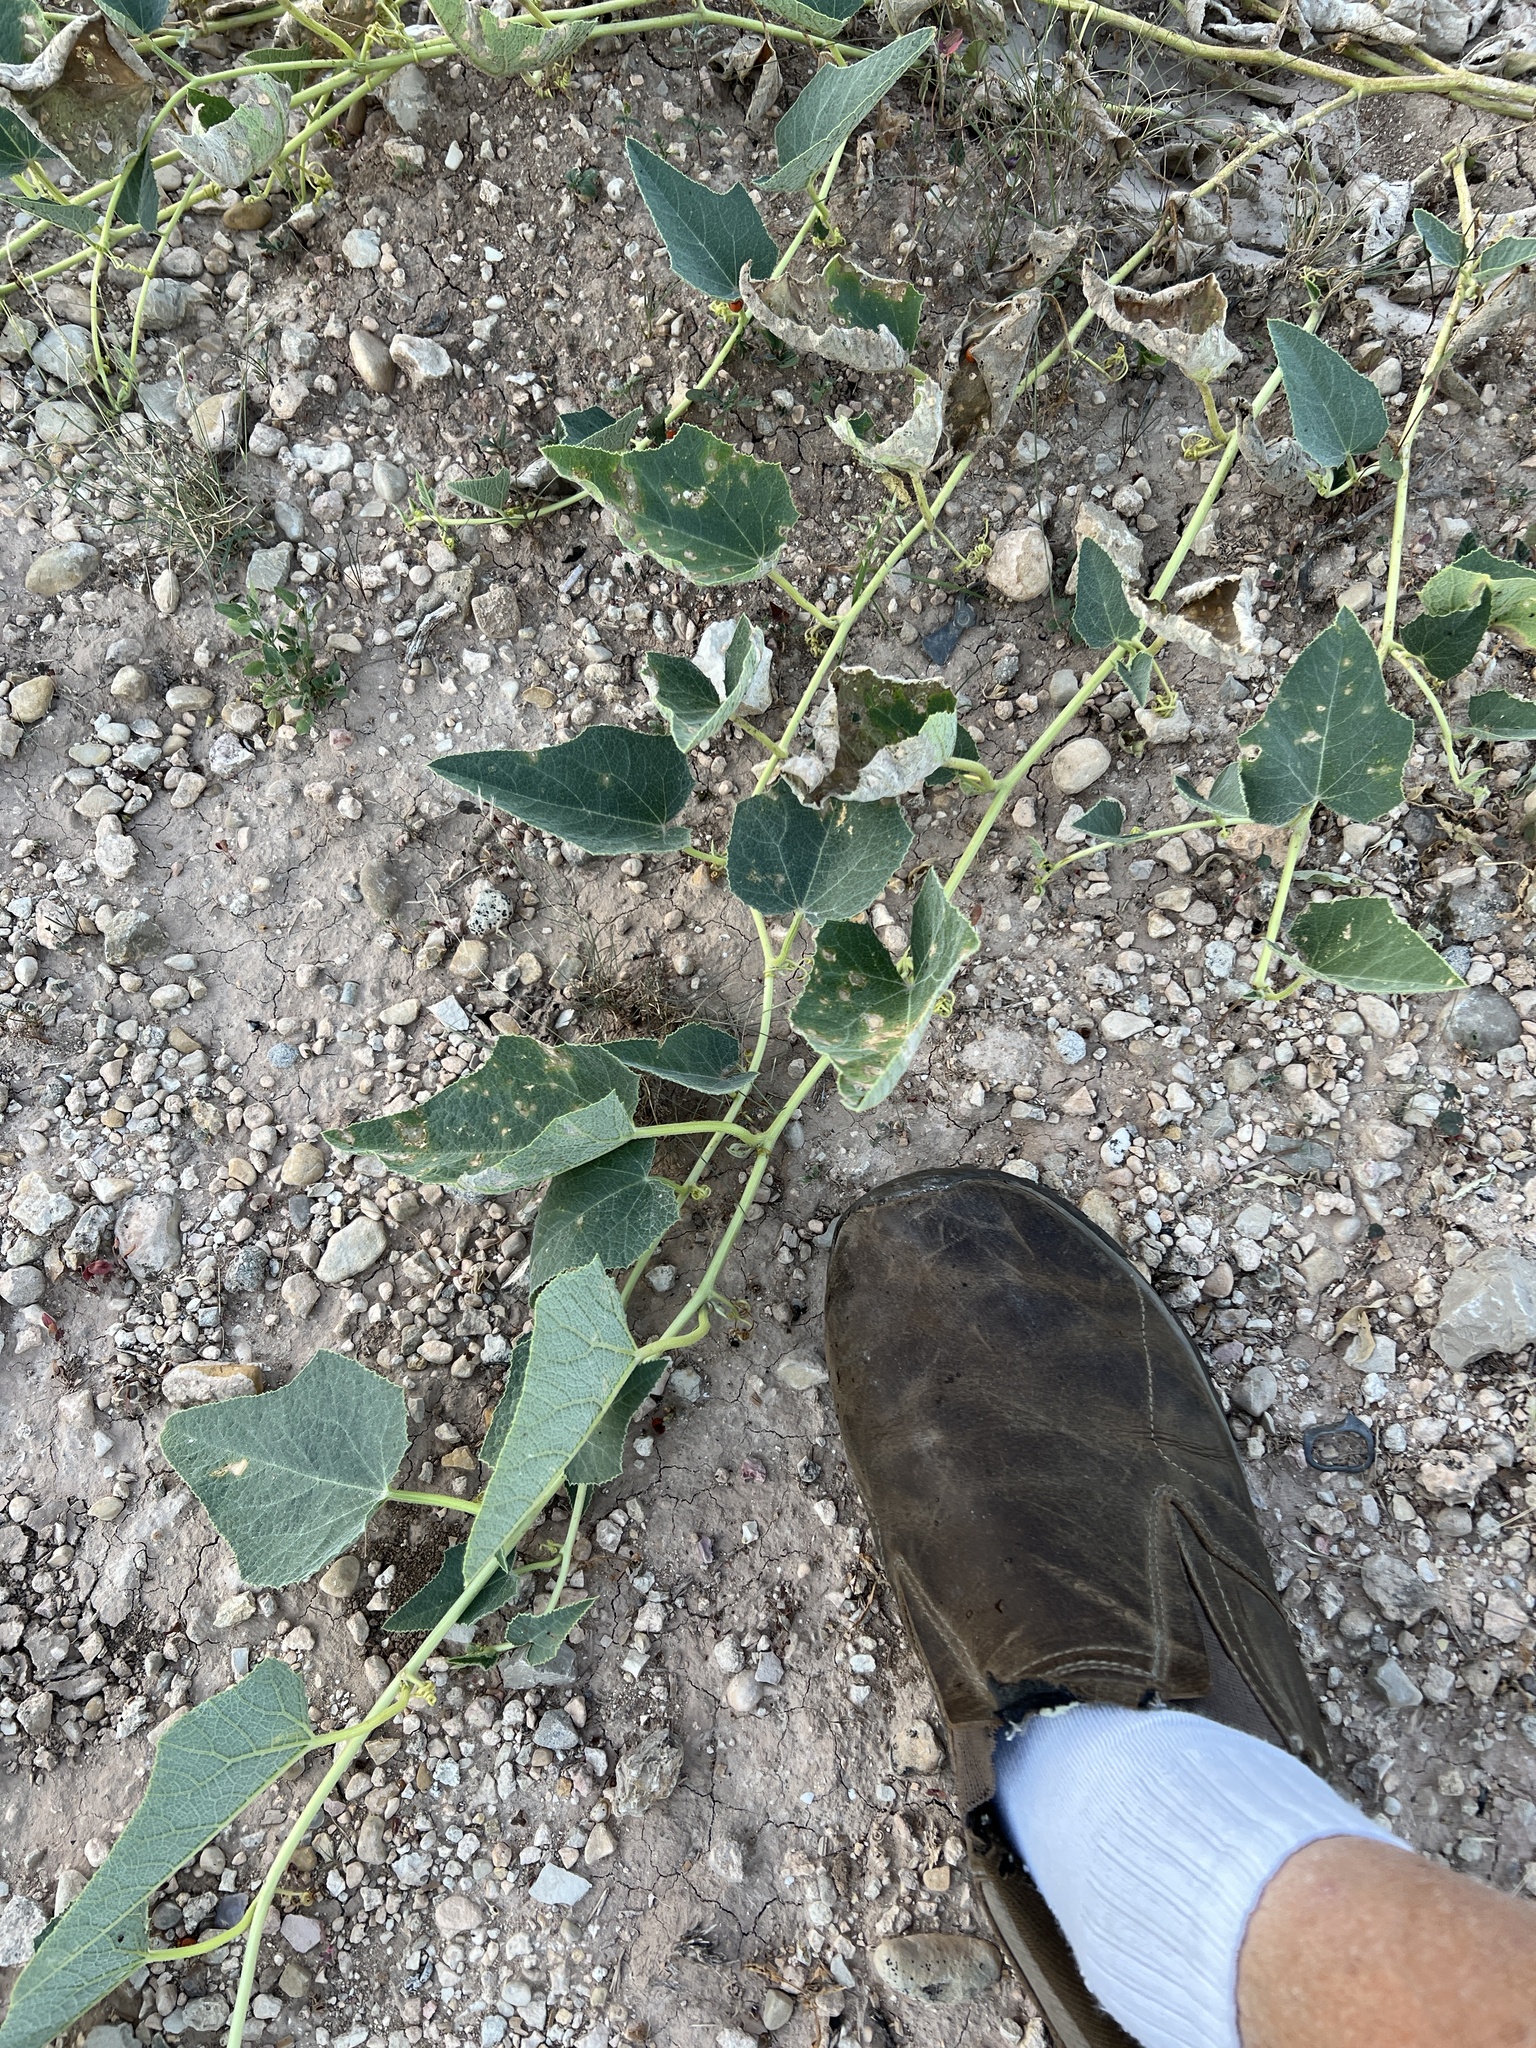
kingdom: Plantae
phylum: Tracheophyta
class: Magnoliopsida
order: Cucurbitales
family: Cucurbitaceae
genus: Cucurbita
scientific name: Cucurbita foetidissima
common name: Buffalo gourd
